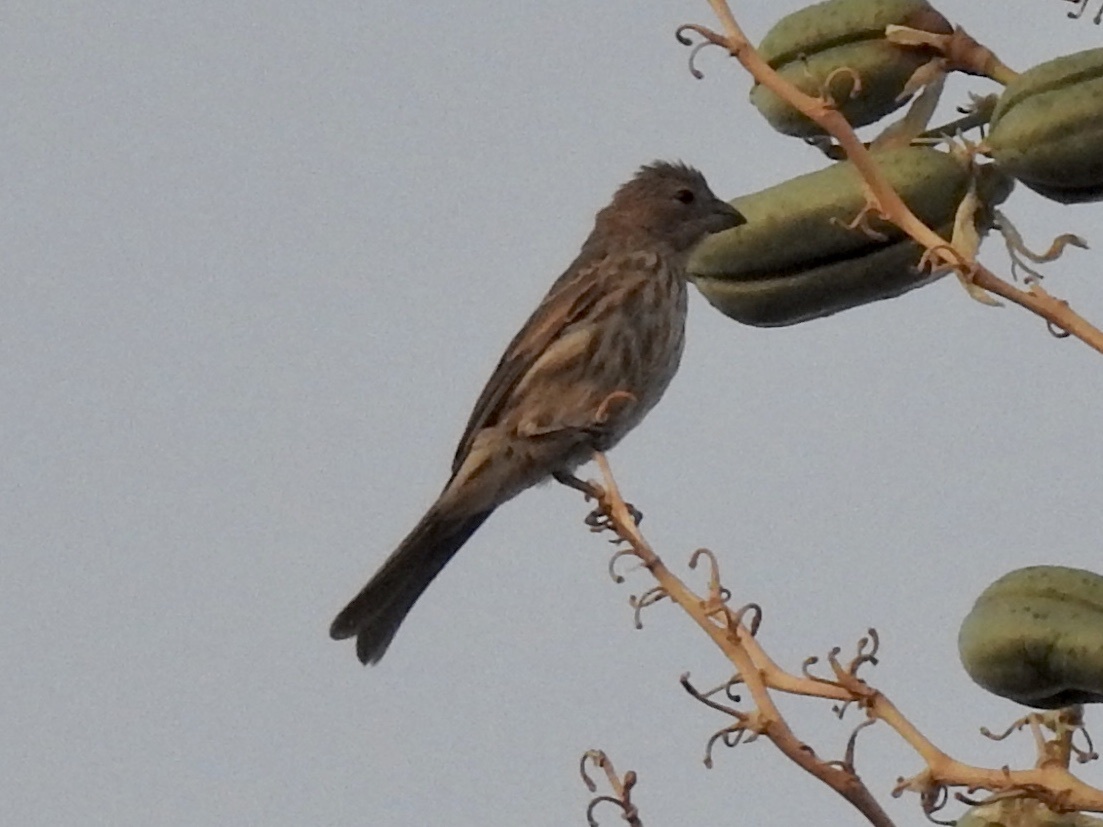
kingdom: Animalia
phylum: Chordata
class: Aves
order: Passeriformes
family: Fringillidae
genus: Haemorhous
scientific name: Haemorhous mexicanus
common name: House finch
